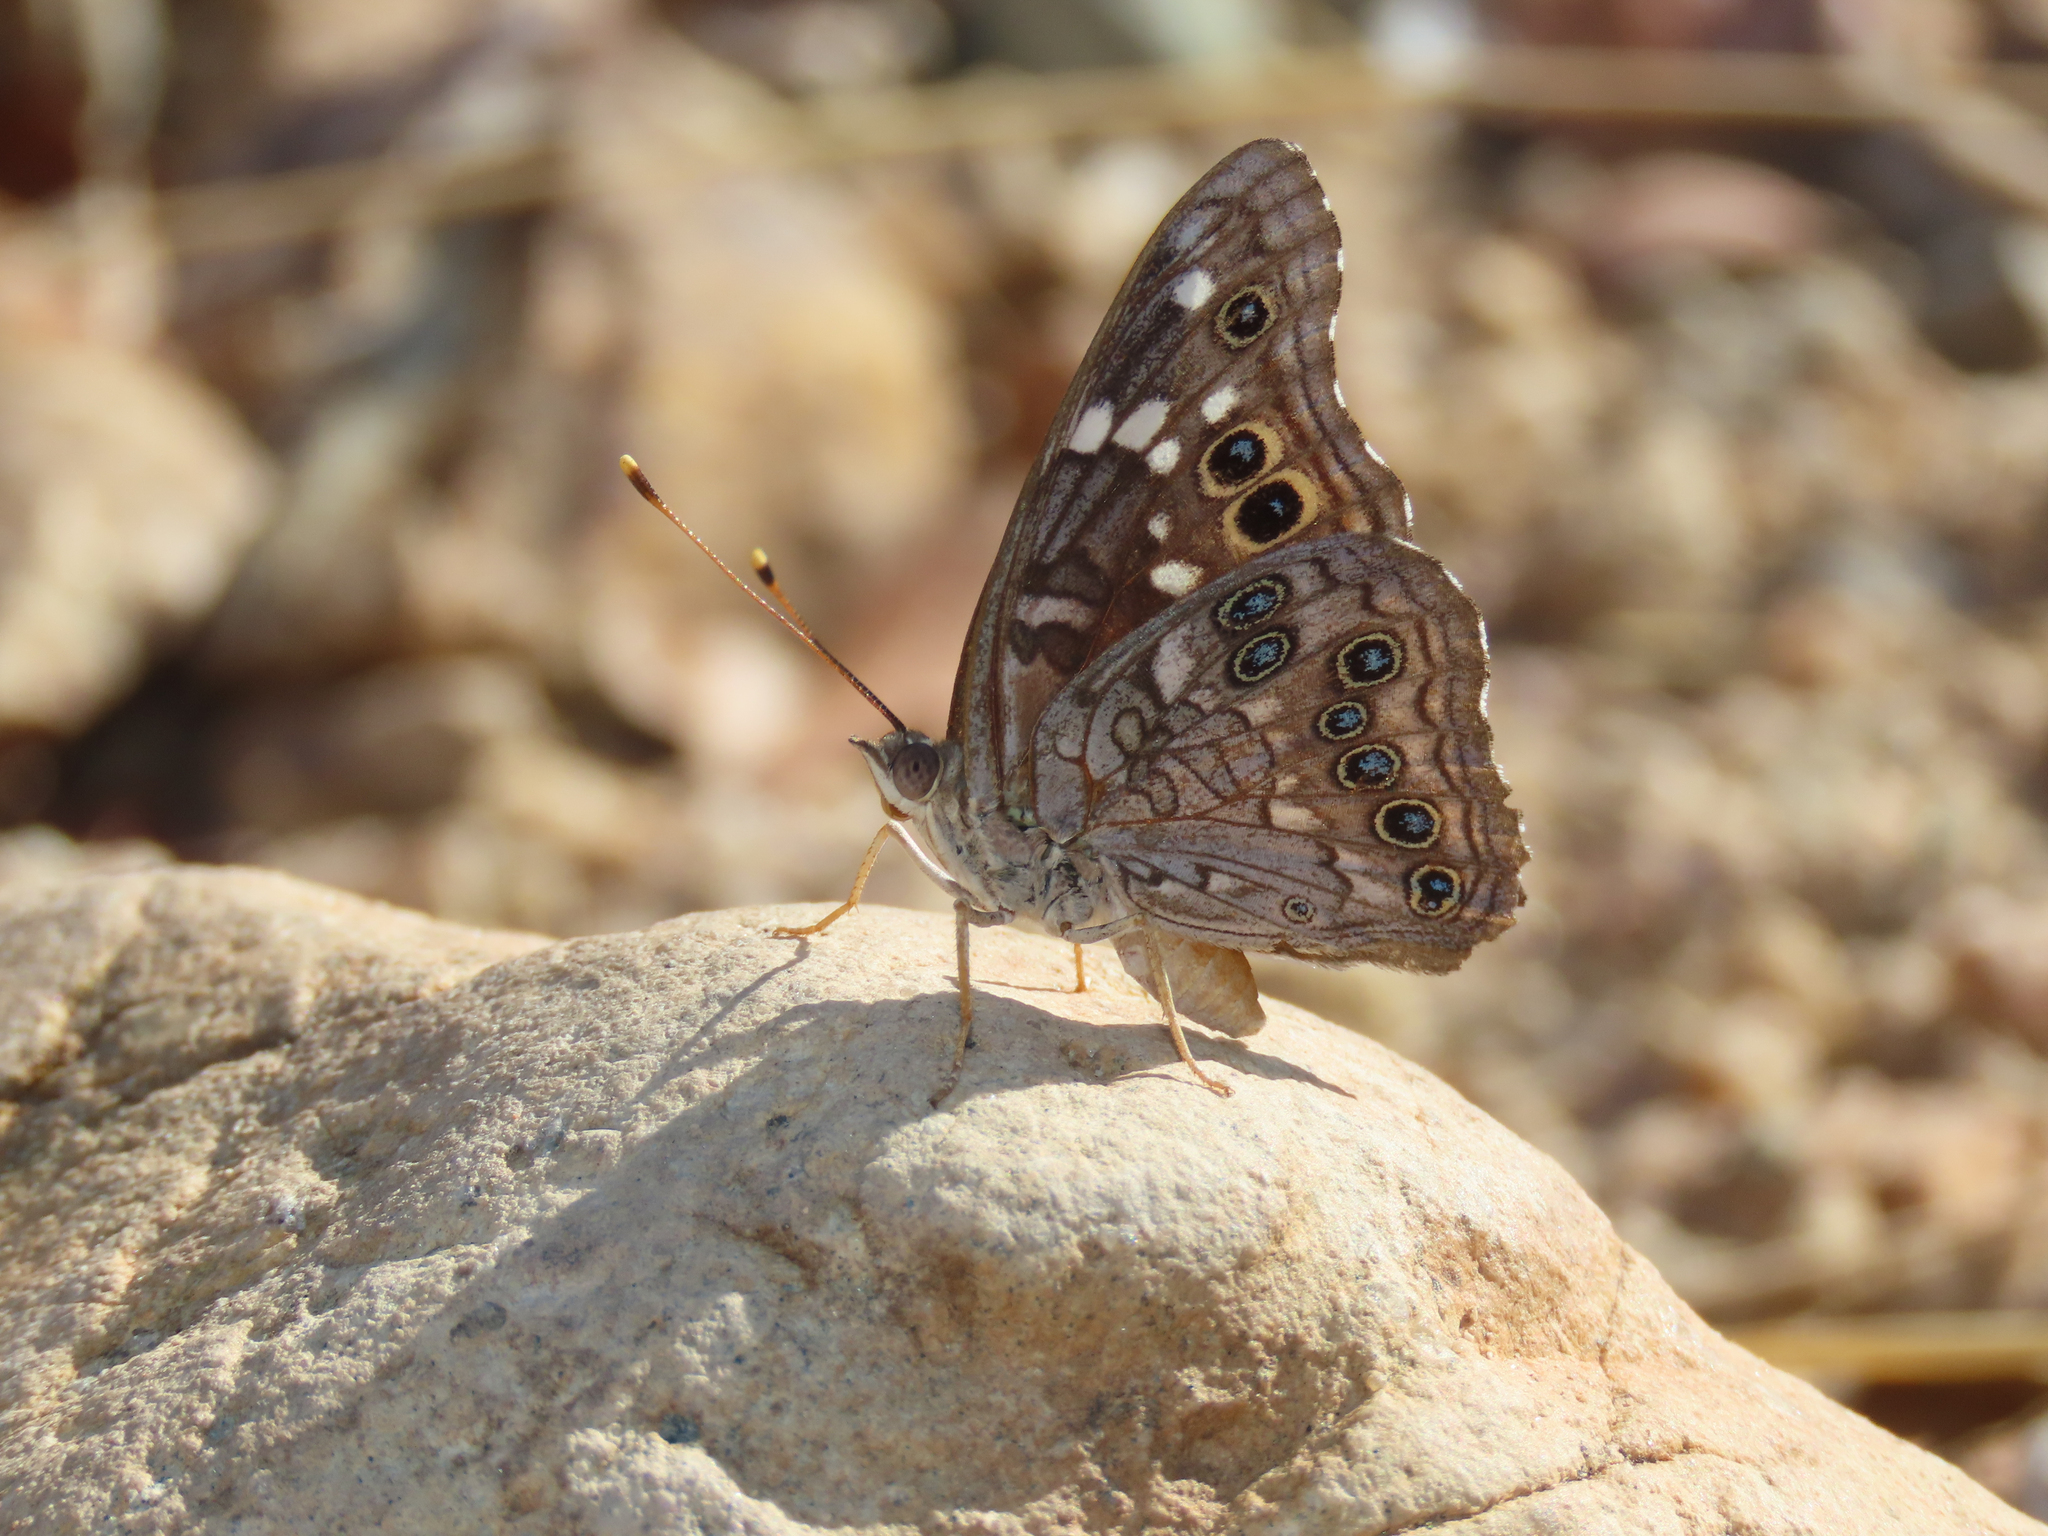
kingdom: Animalia
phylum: Arthropoda
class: Insecta
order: Lepidoptera
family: Nymphalidae
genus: Asterocampa
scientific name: Asterocampa leilia
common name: Empress leilia
